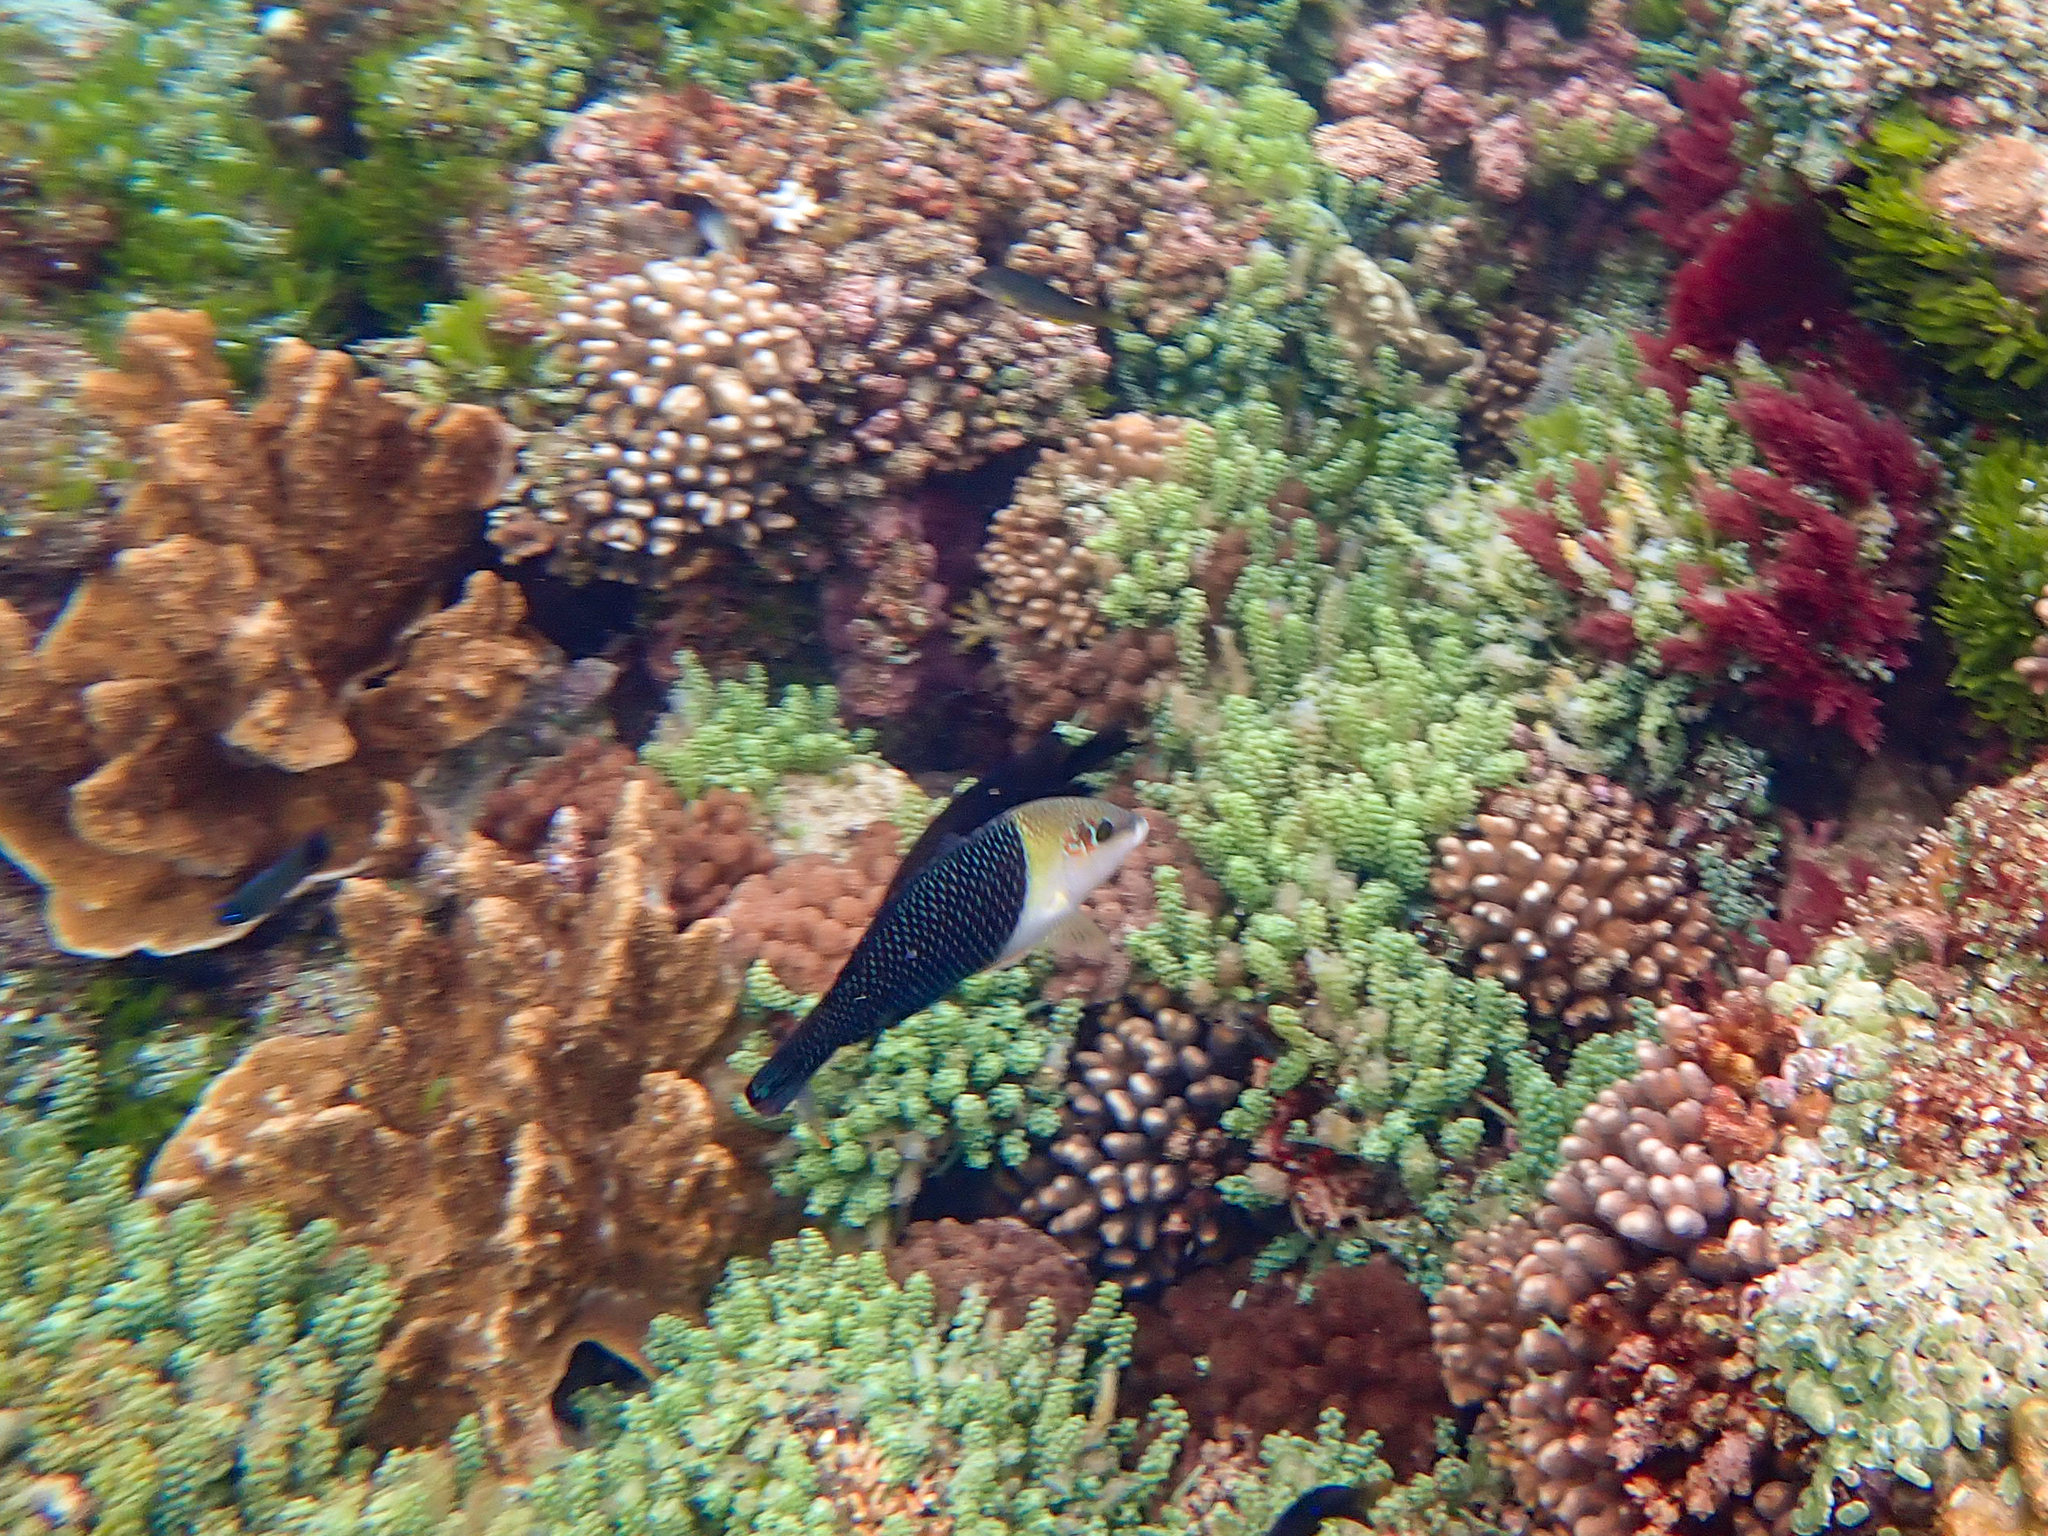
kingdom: Animalia
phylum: Chordata
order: Perciformes
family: Labridae
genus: Hemigymnus
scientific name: Hemigymnus melapterus
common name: Blackeye thicklip
